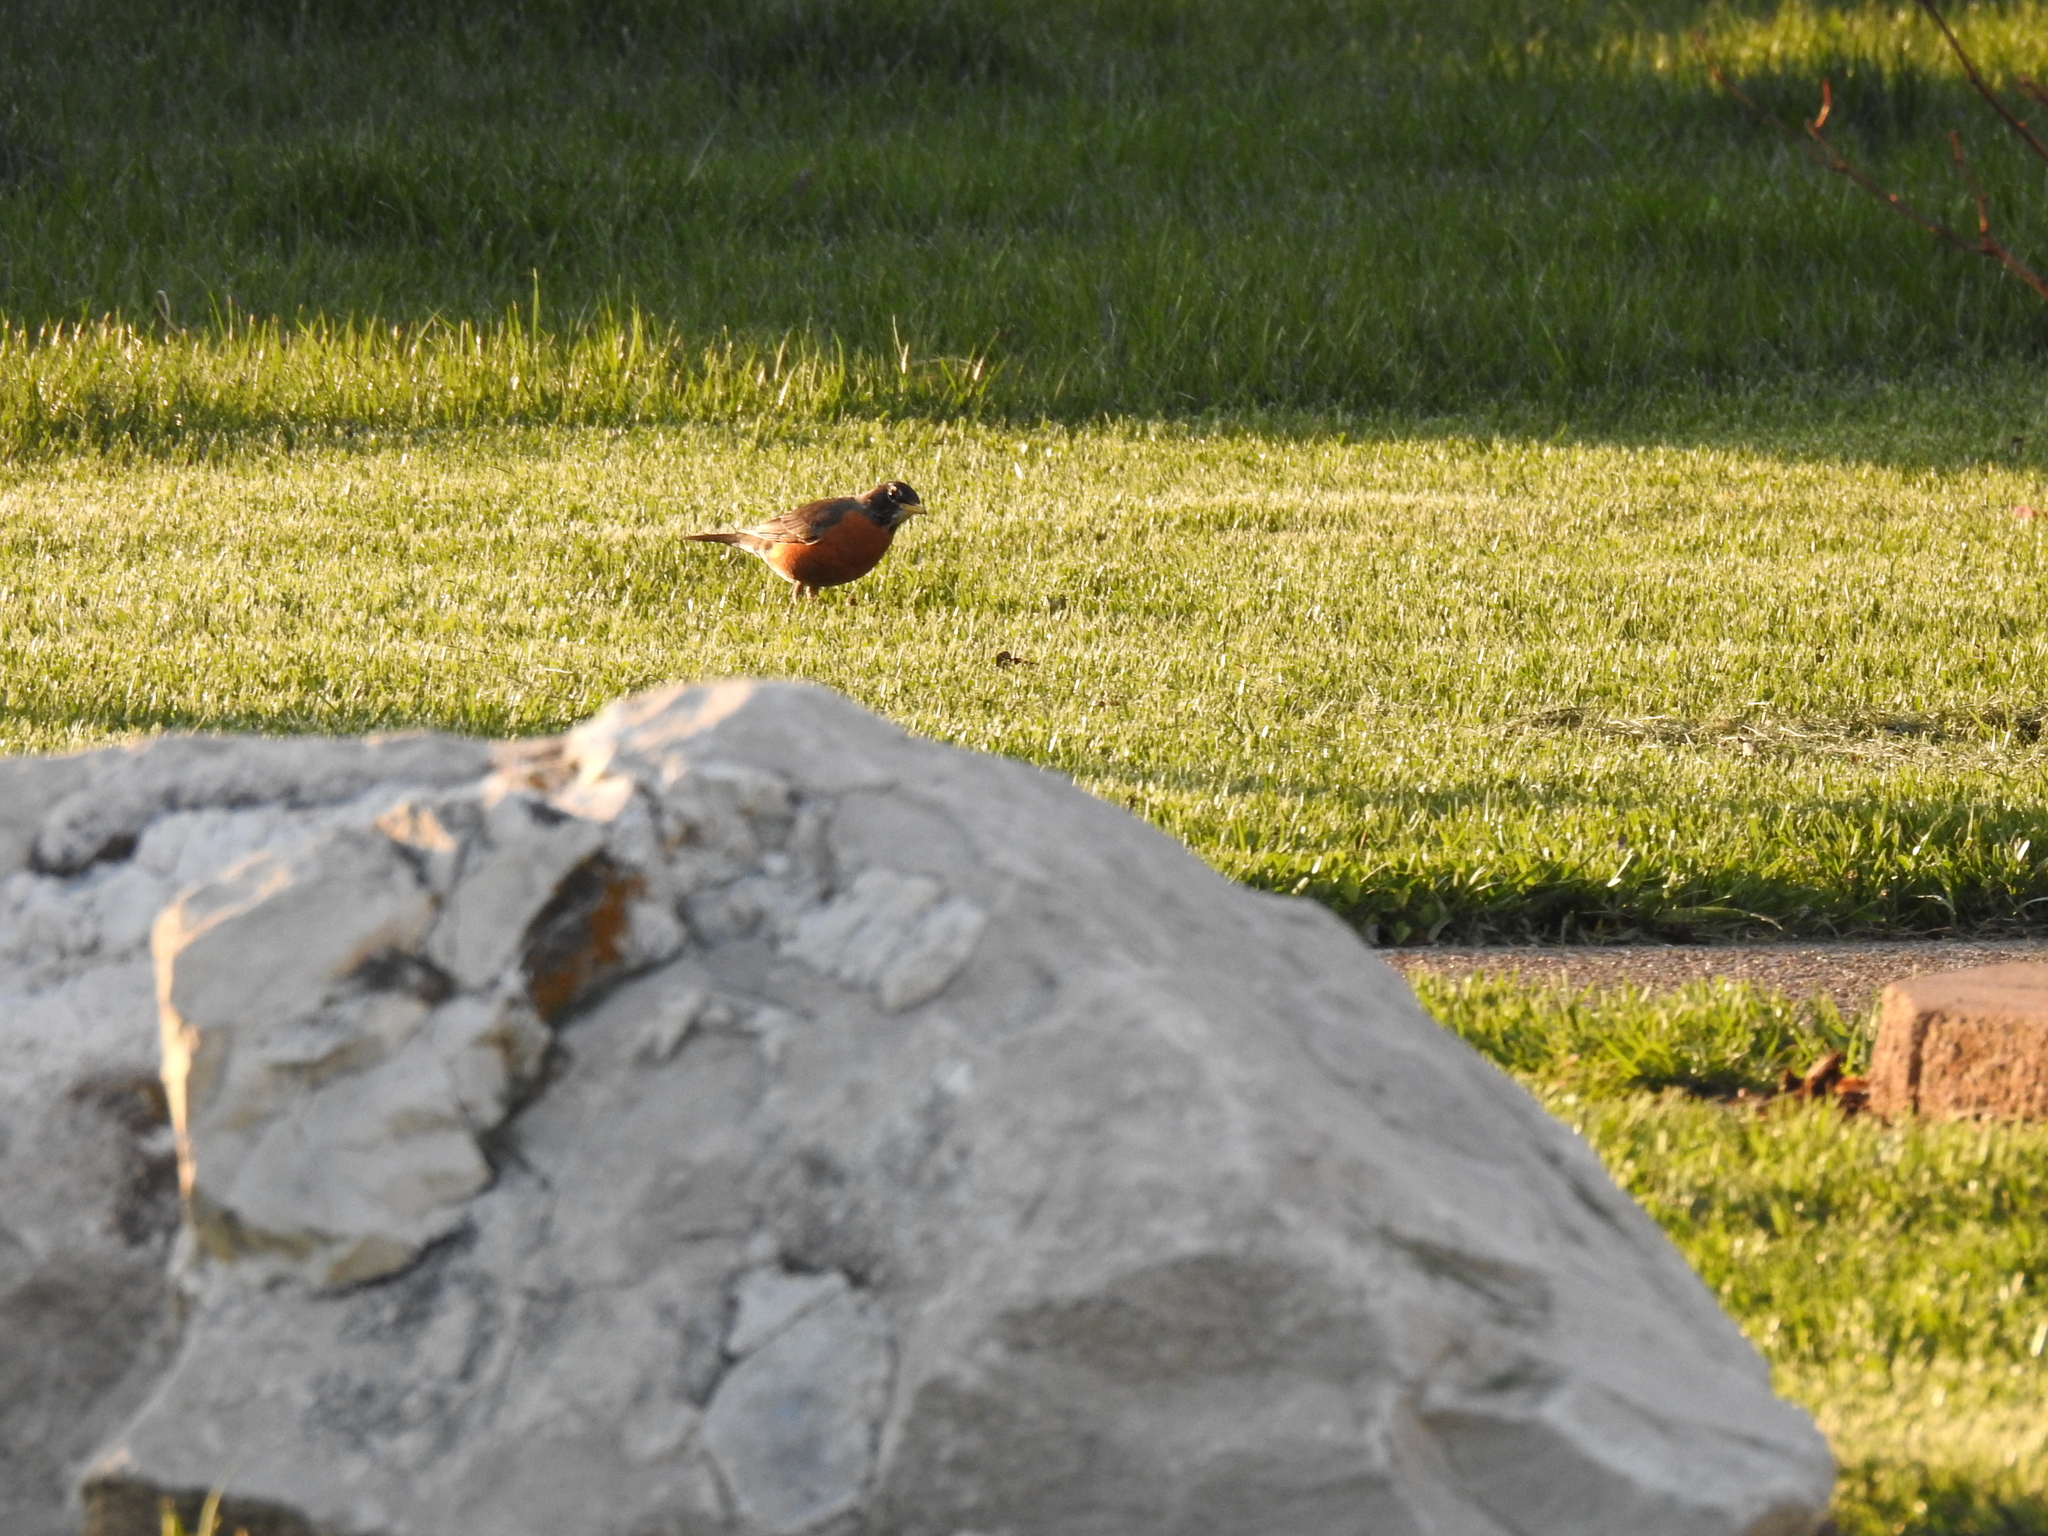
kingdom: Animalia
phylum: Chordata
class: Aves
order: Passeriformes
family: Turdidae
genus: Turdus
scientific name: Turdus migratorius
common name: American robin
